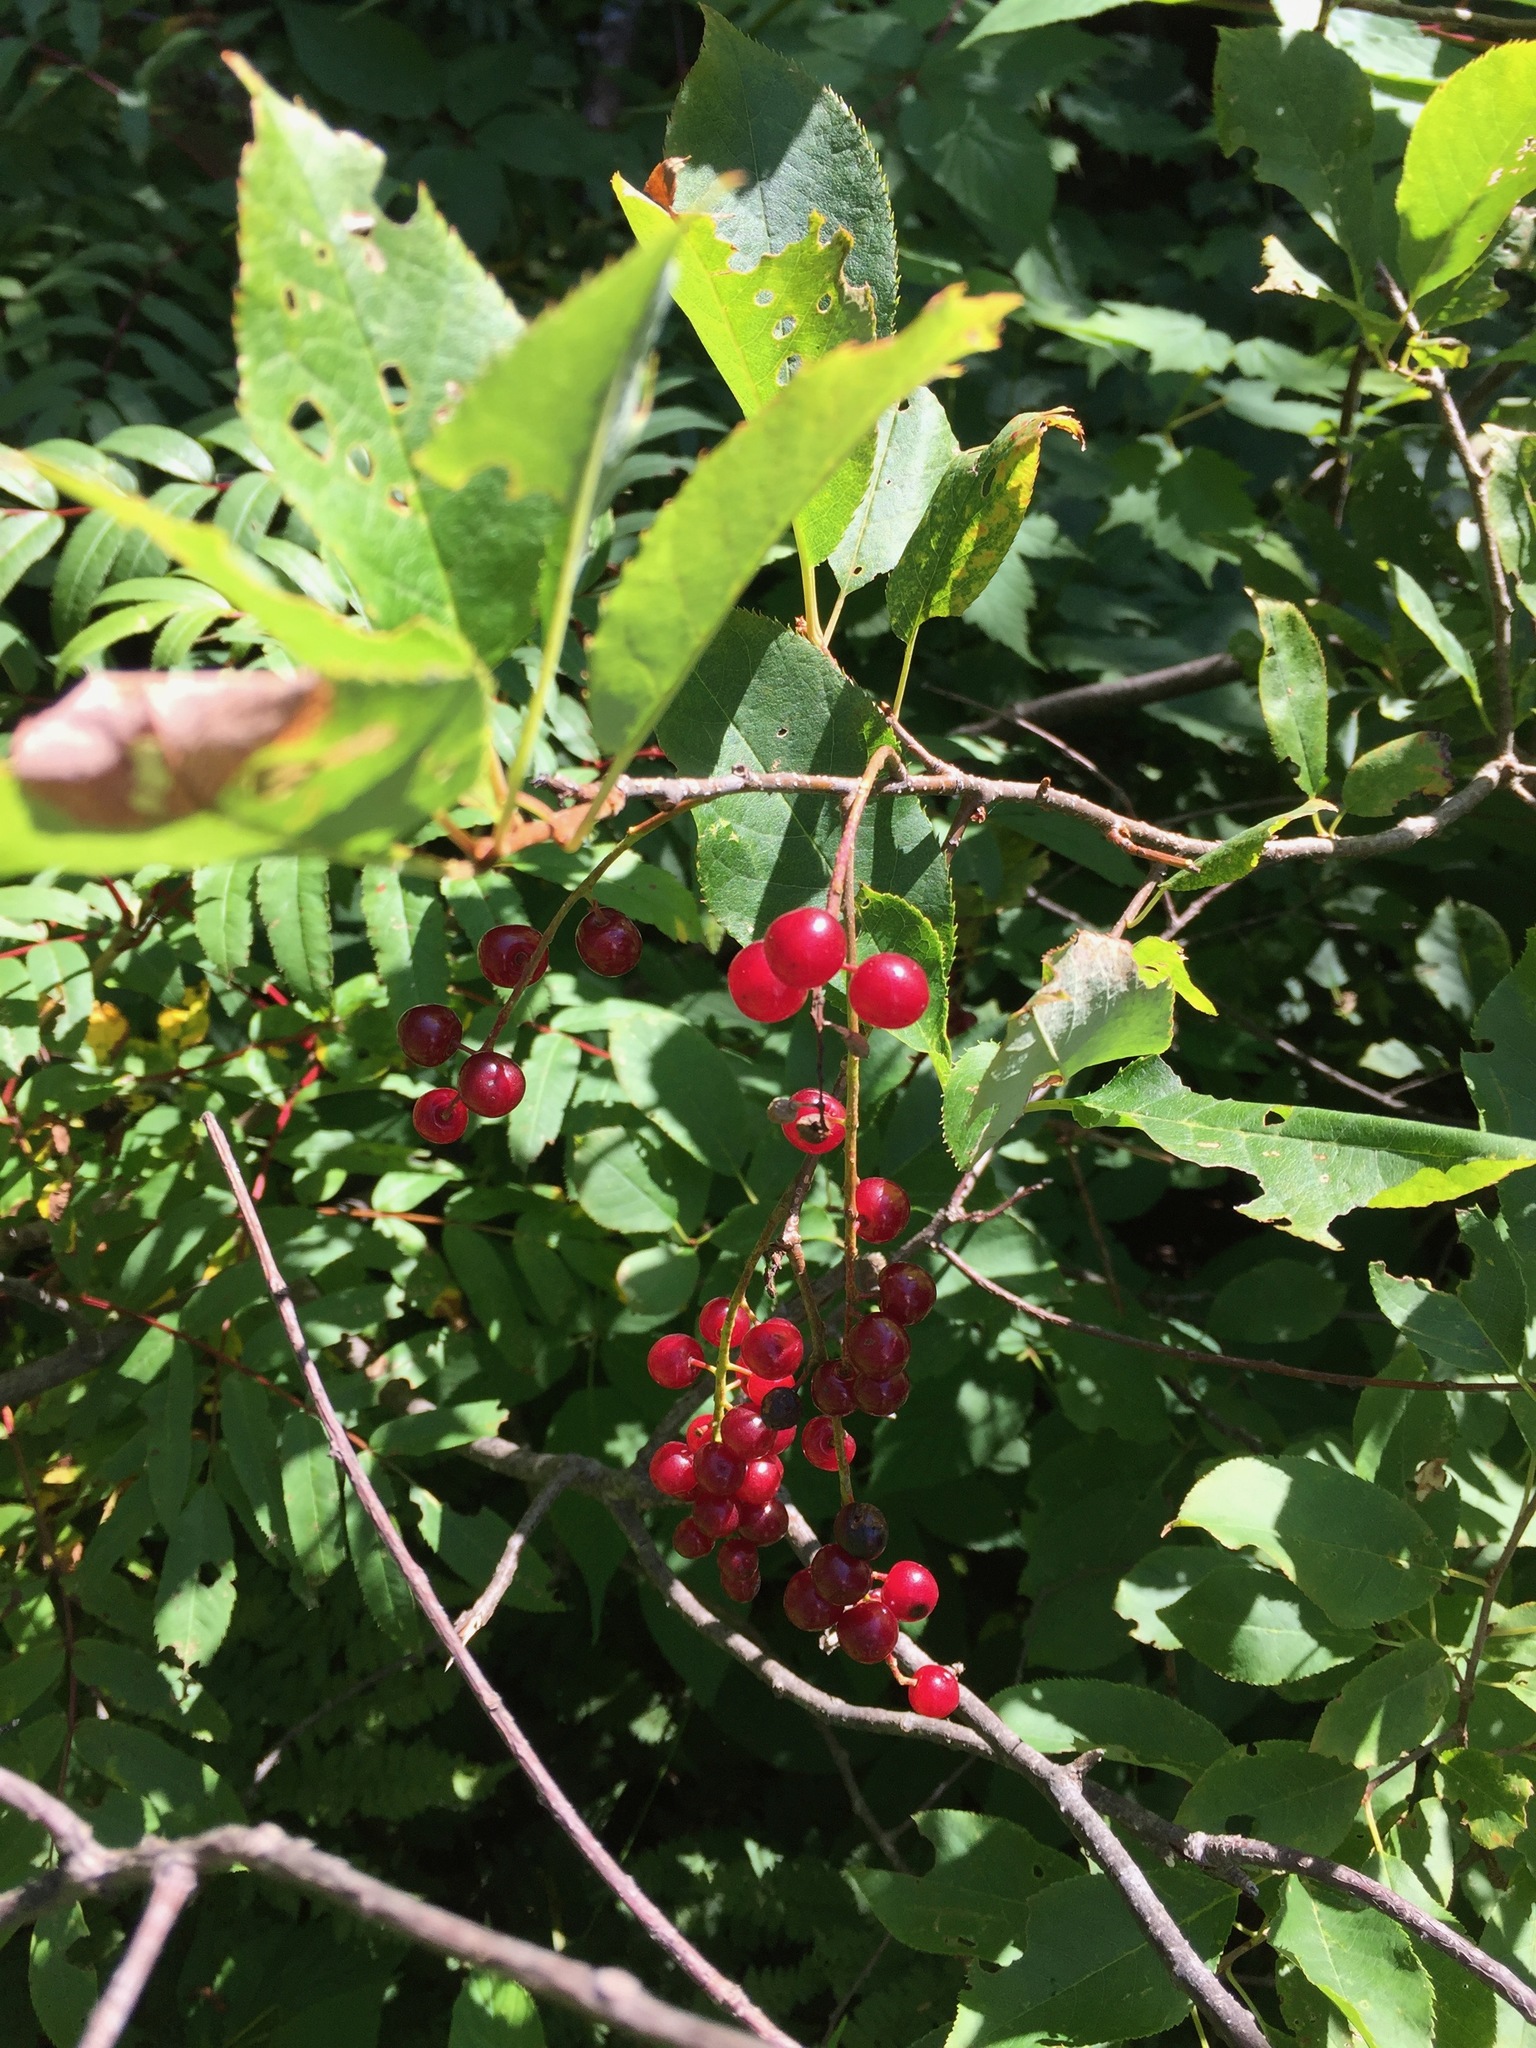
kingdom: Plantae
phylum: Tracheophyta
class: Magnoliopsida
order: Rosales
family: Rosaceae
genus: Prunus
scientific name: Prunus virginiana
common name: Chokecherry
